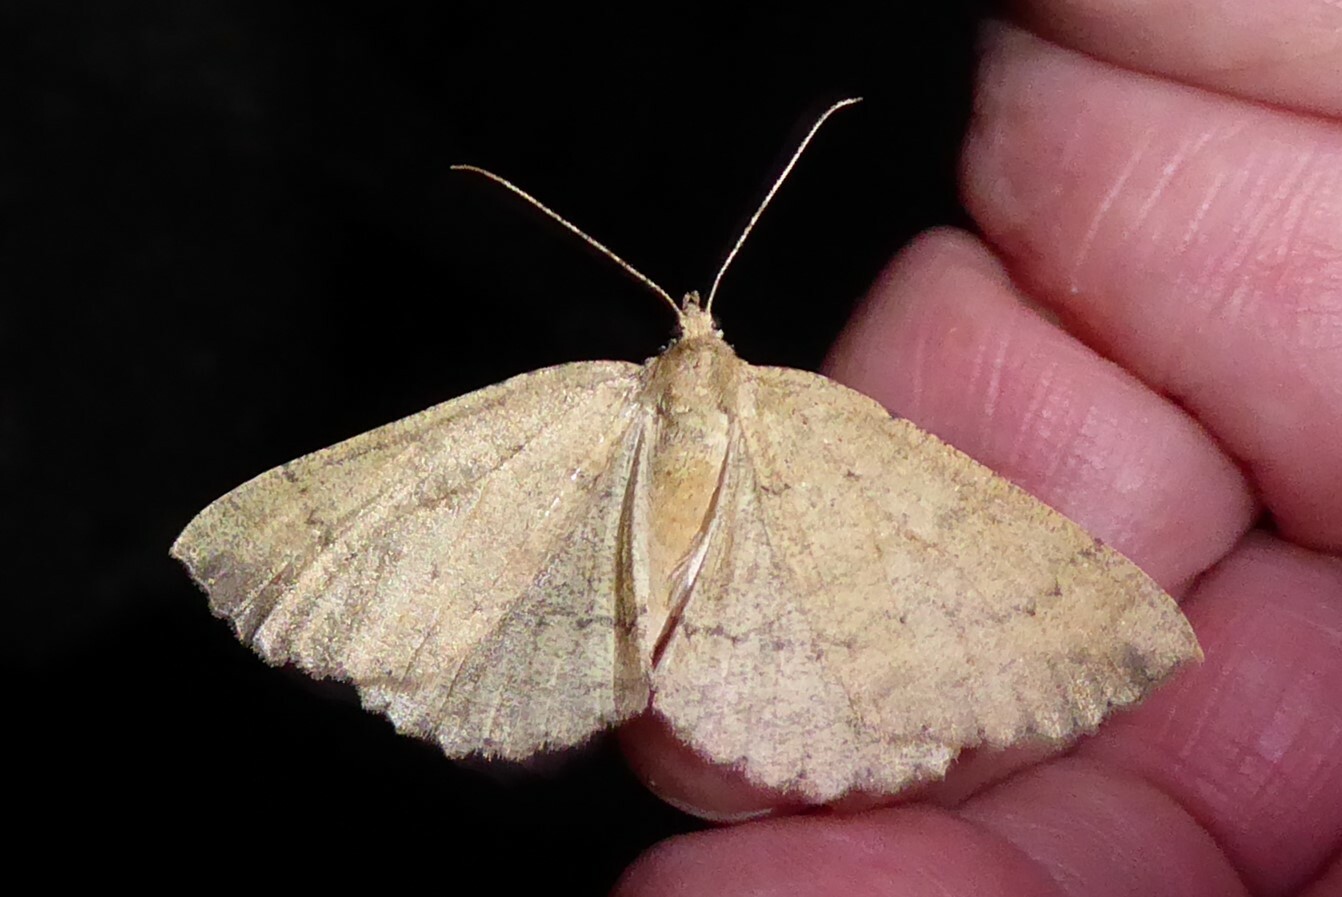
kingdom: Animalia
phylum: Arthropoda
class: Insecta
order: Lepidoptera
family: Geometridae
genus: Cleora
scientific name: Cleora scriptaria
